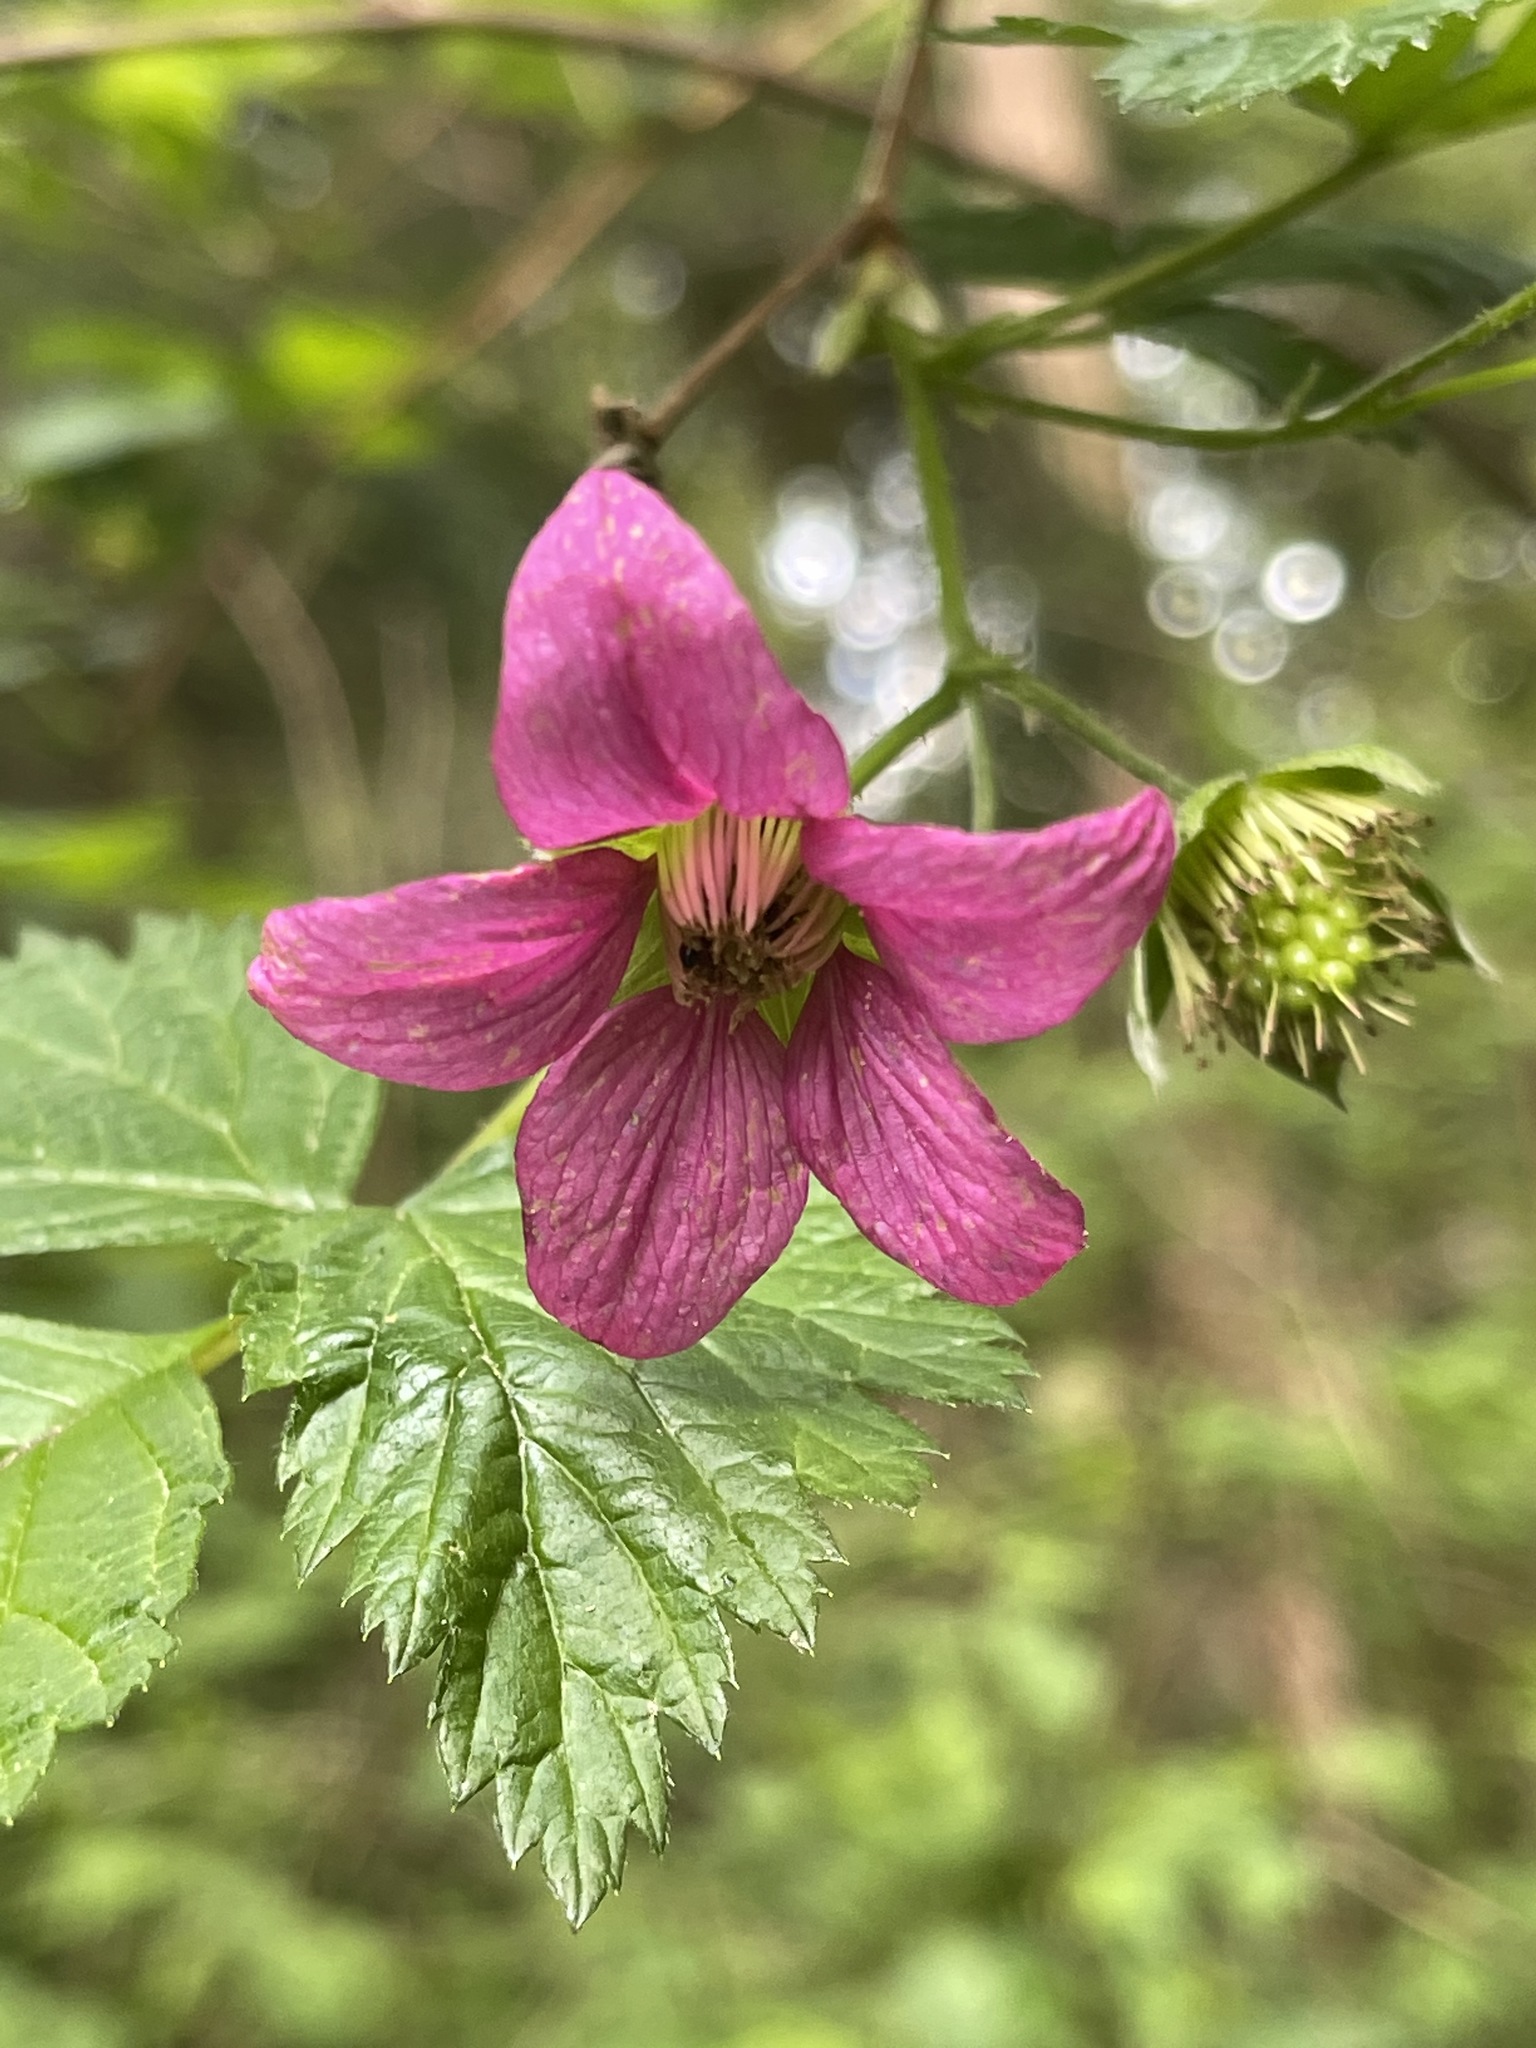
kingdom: Plantae
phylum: Tracheophyta
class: Magnoliopsida
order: Rosales
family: Rosaceae
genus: Rubus
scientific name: Rubus spectabilis
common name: Salmonberry
